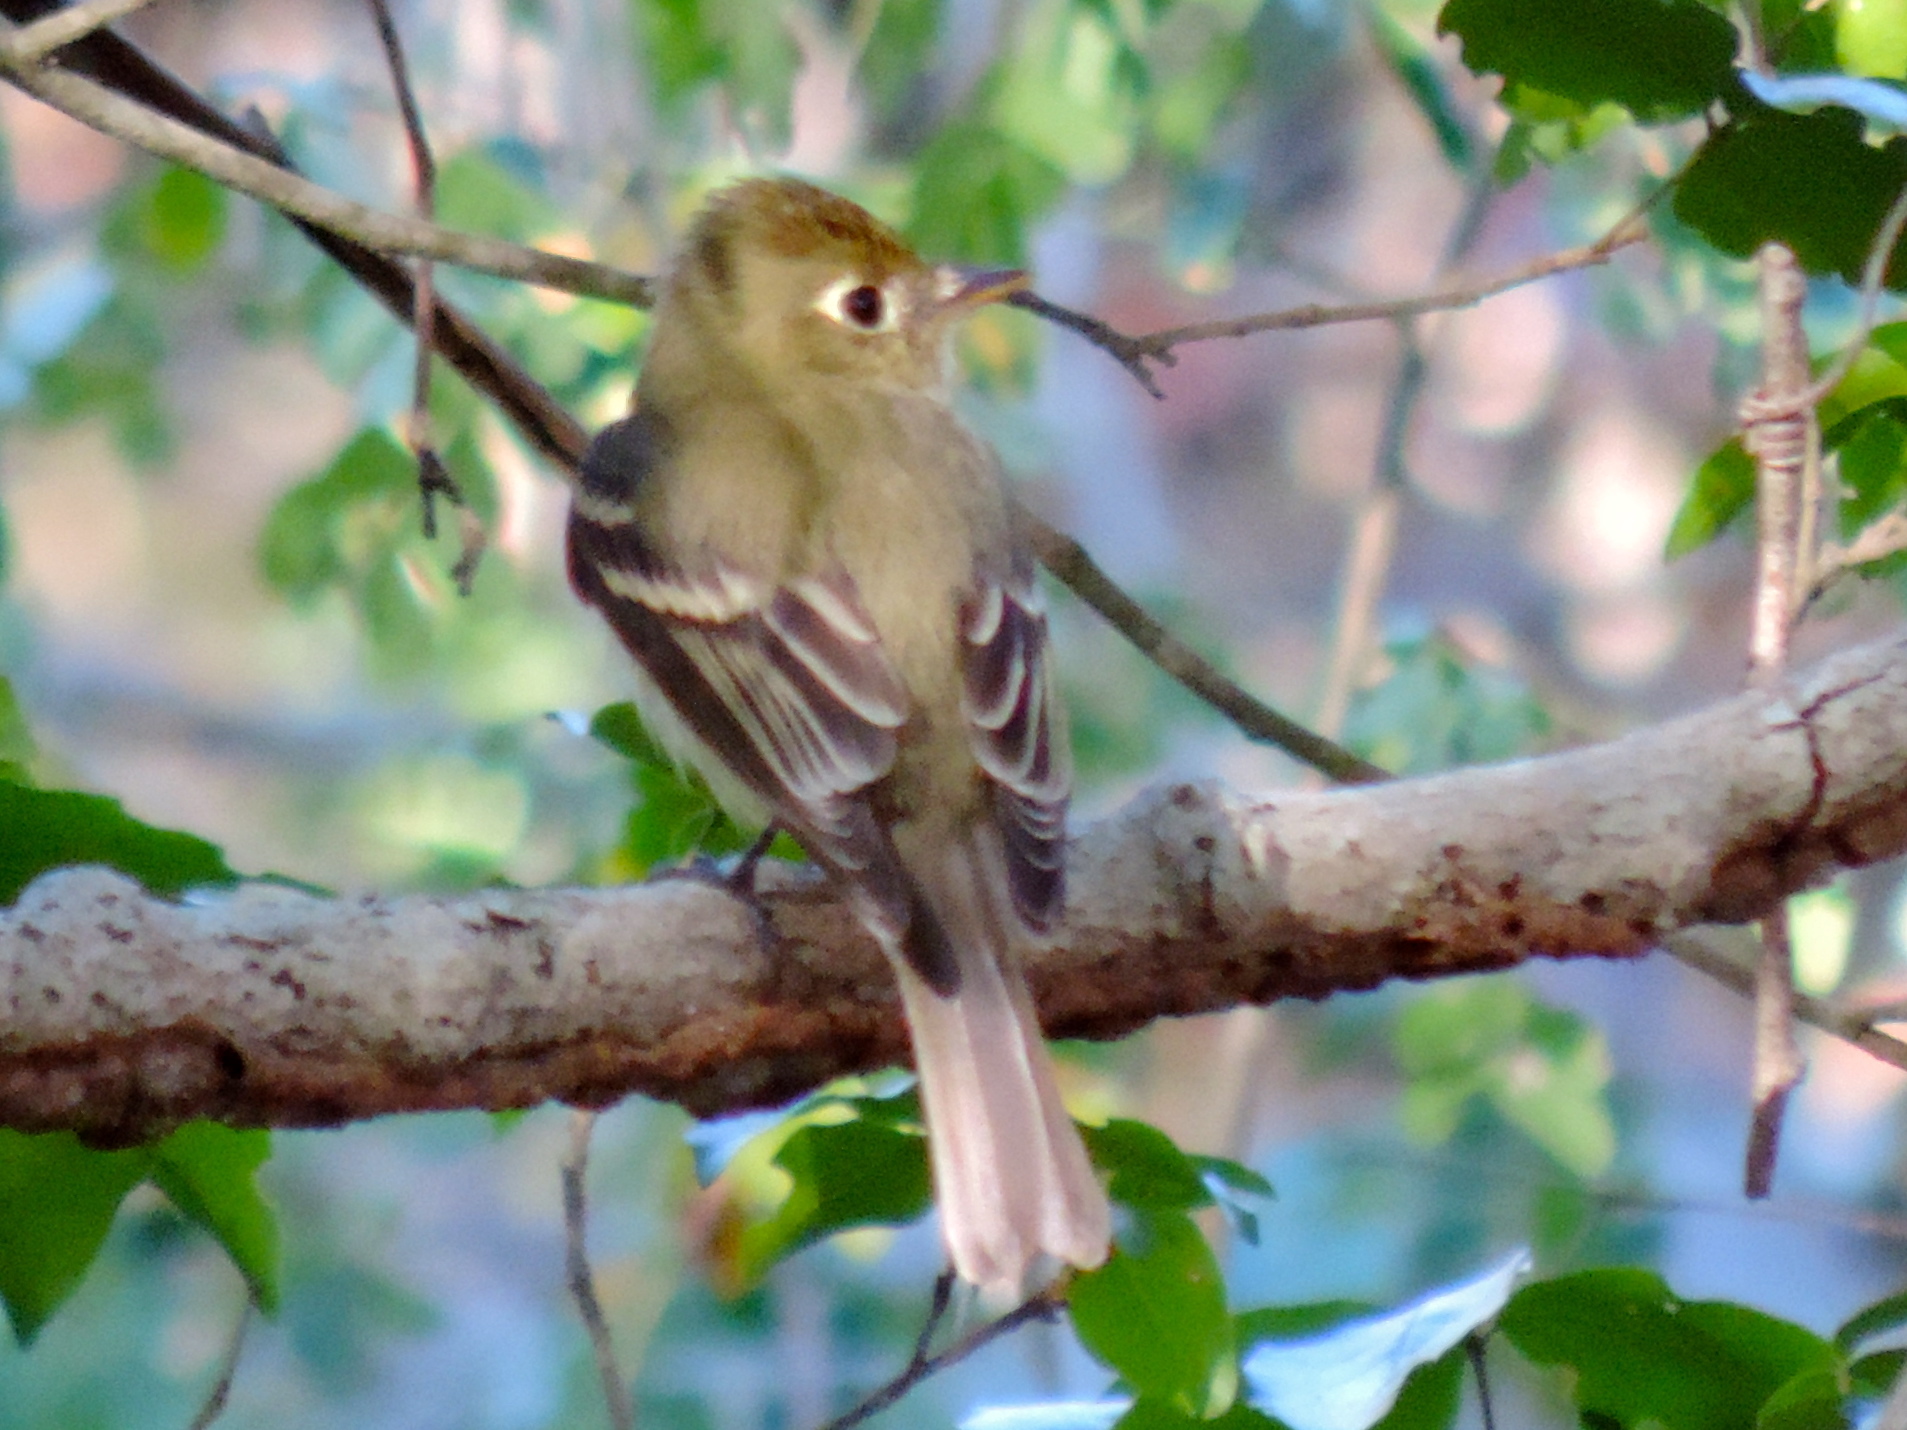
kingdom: Animalia
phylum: Chordata
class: Aves
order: Passeriformes
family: Tyrannidae
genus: Empidonax
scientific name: Empidonax difficilis
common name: Pacific-slope flycatcher
